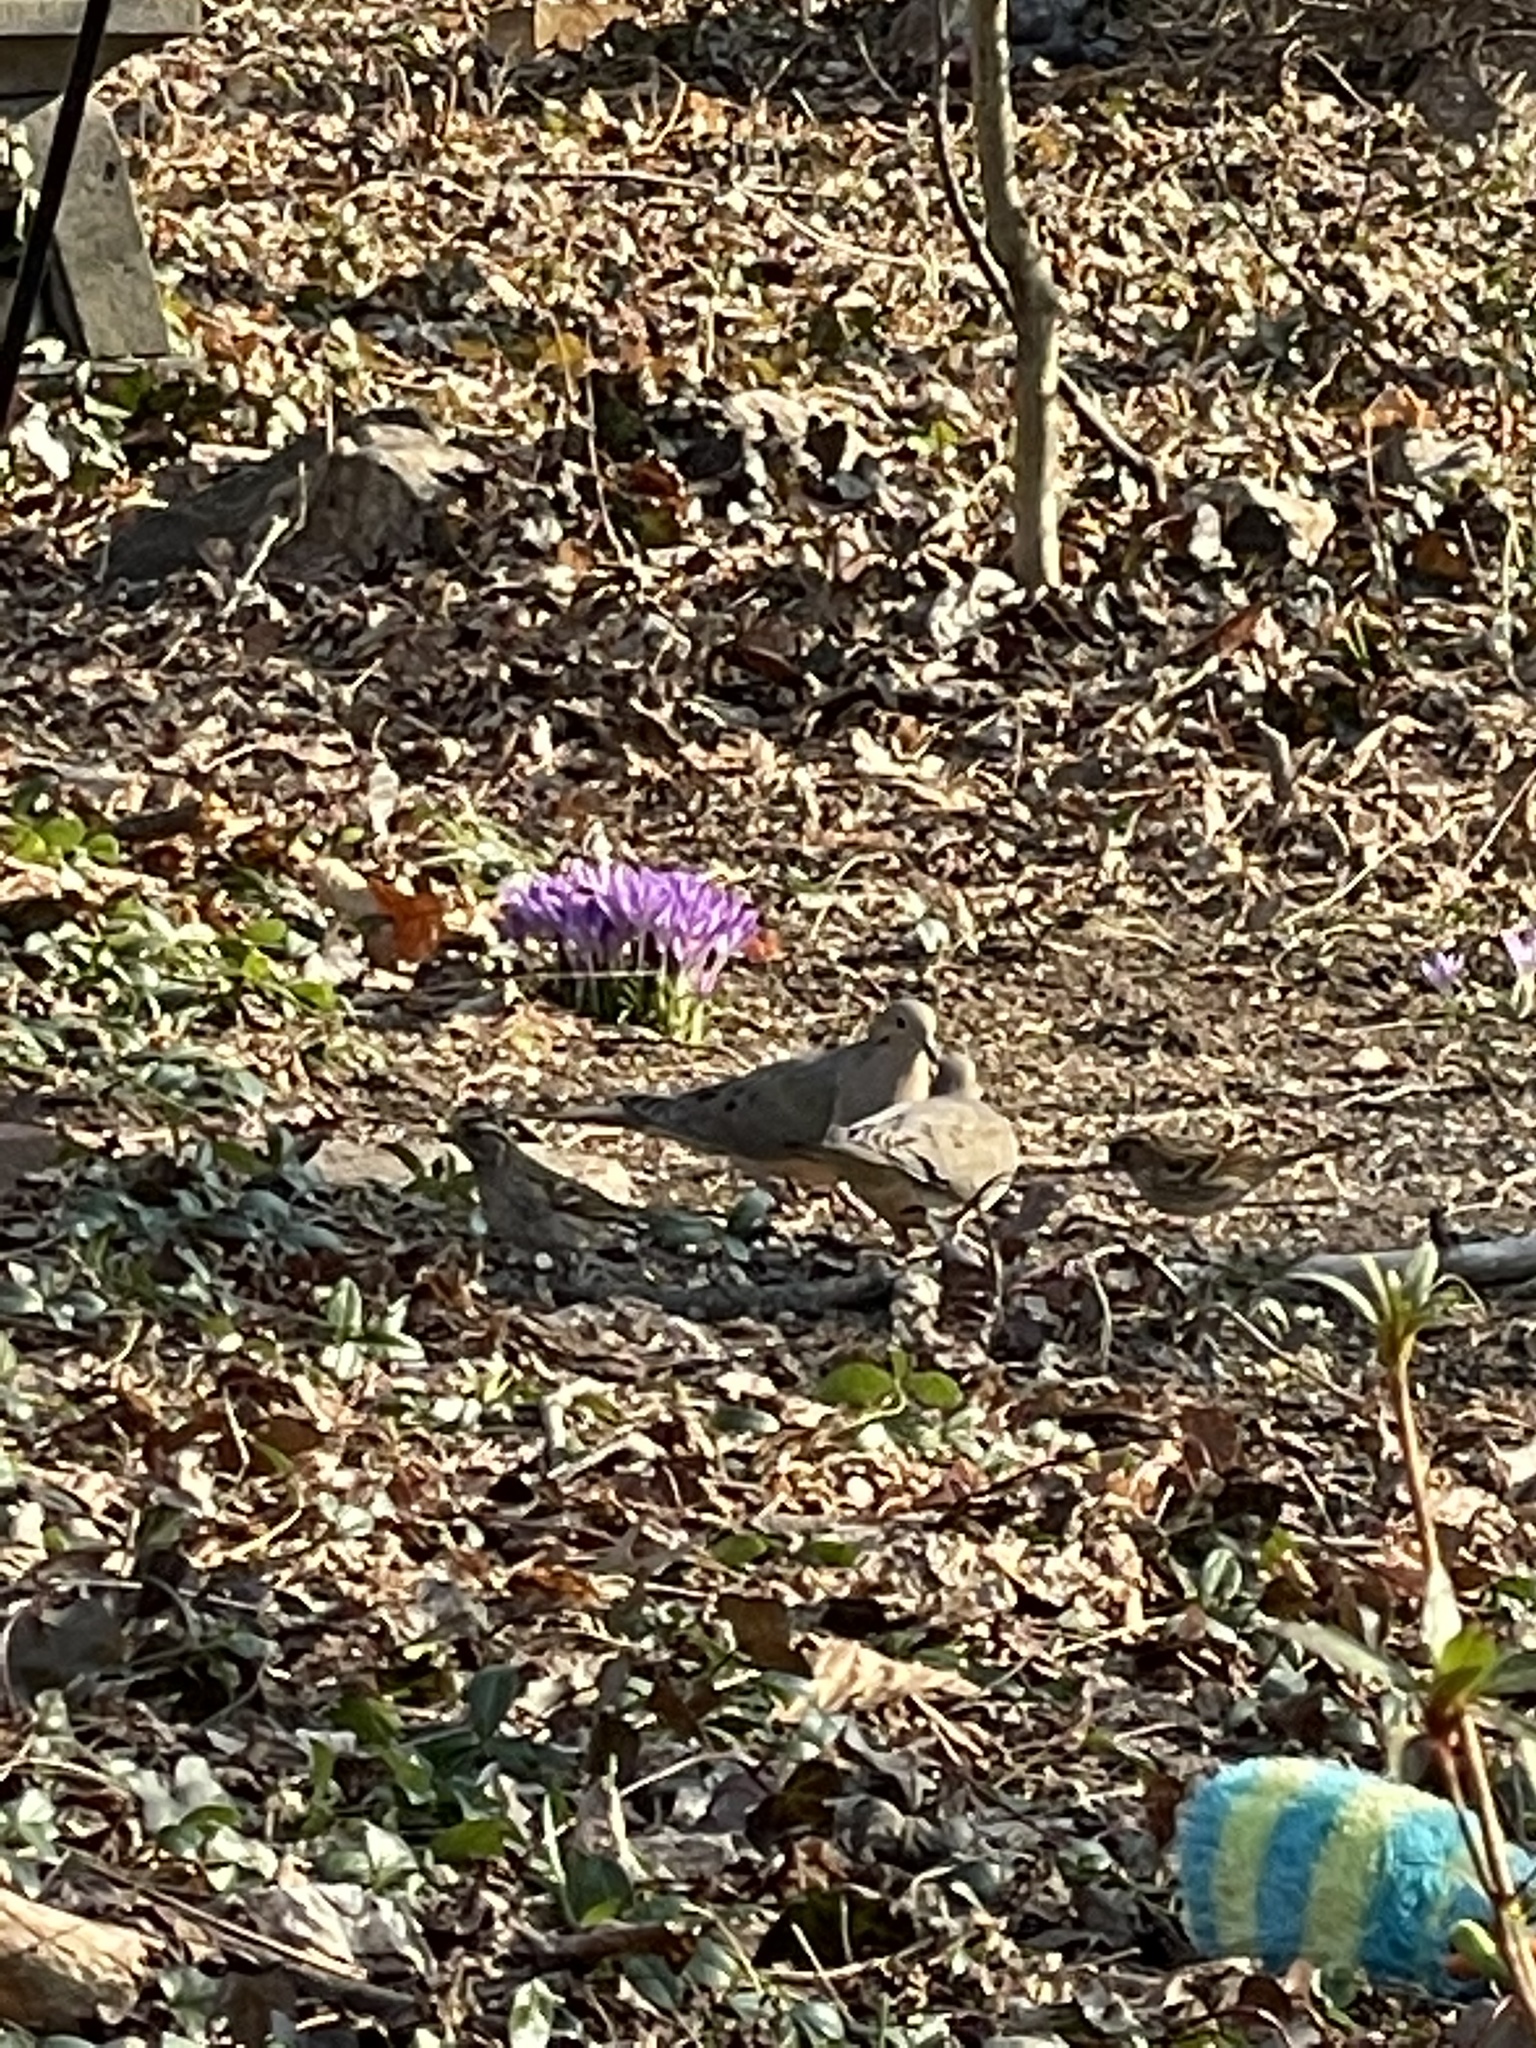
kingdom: Animalia
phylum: Chordata
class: Aves
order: Columbiformes
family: Columbidae
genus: Zenaida
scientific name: Zenaida macroura
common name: Mourning dove
